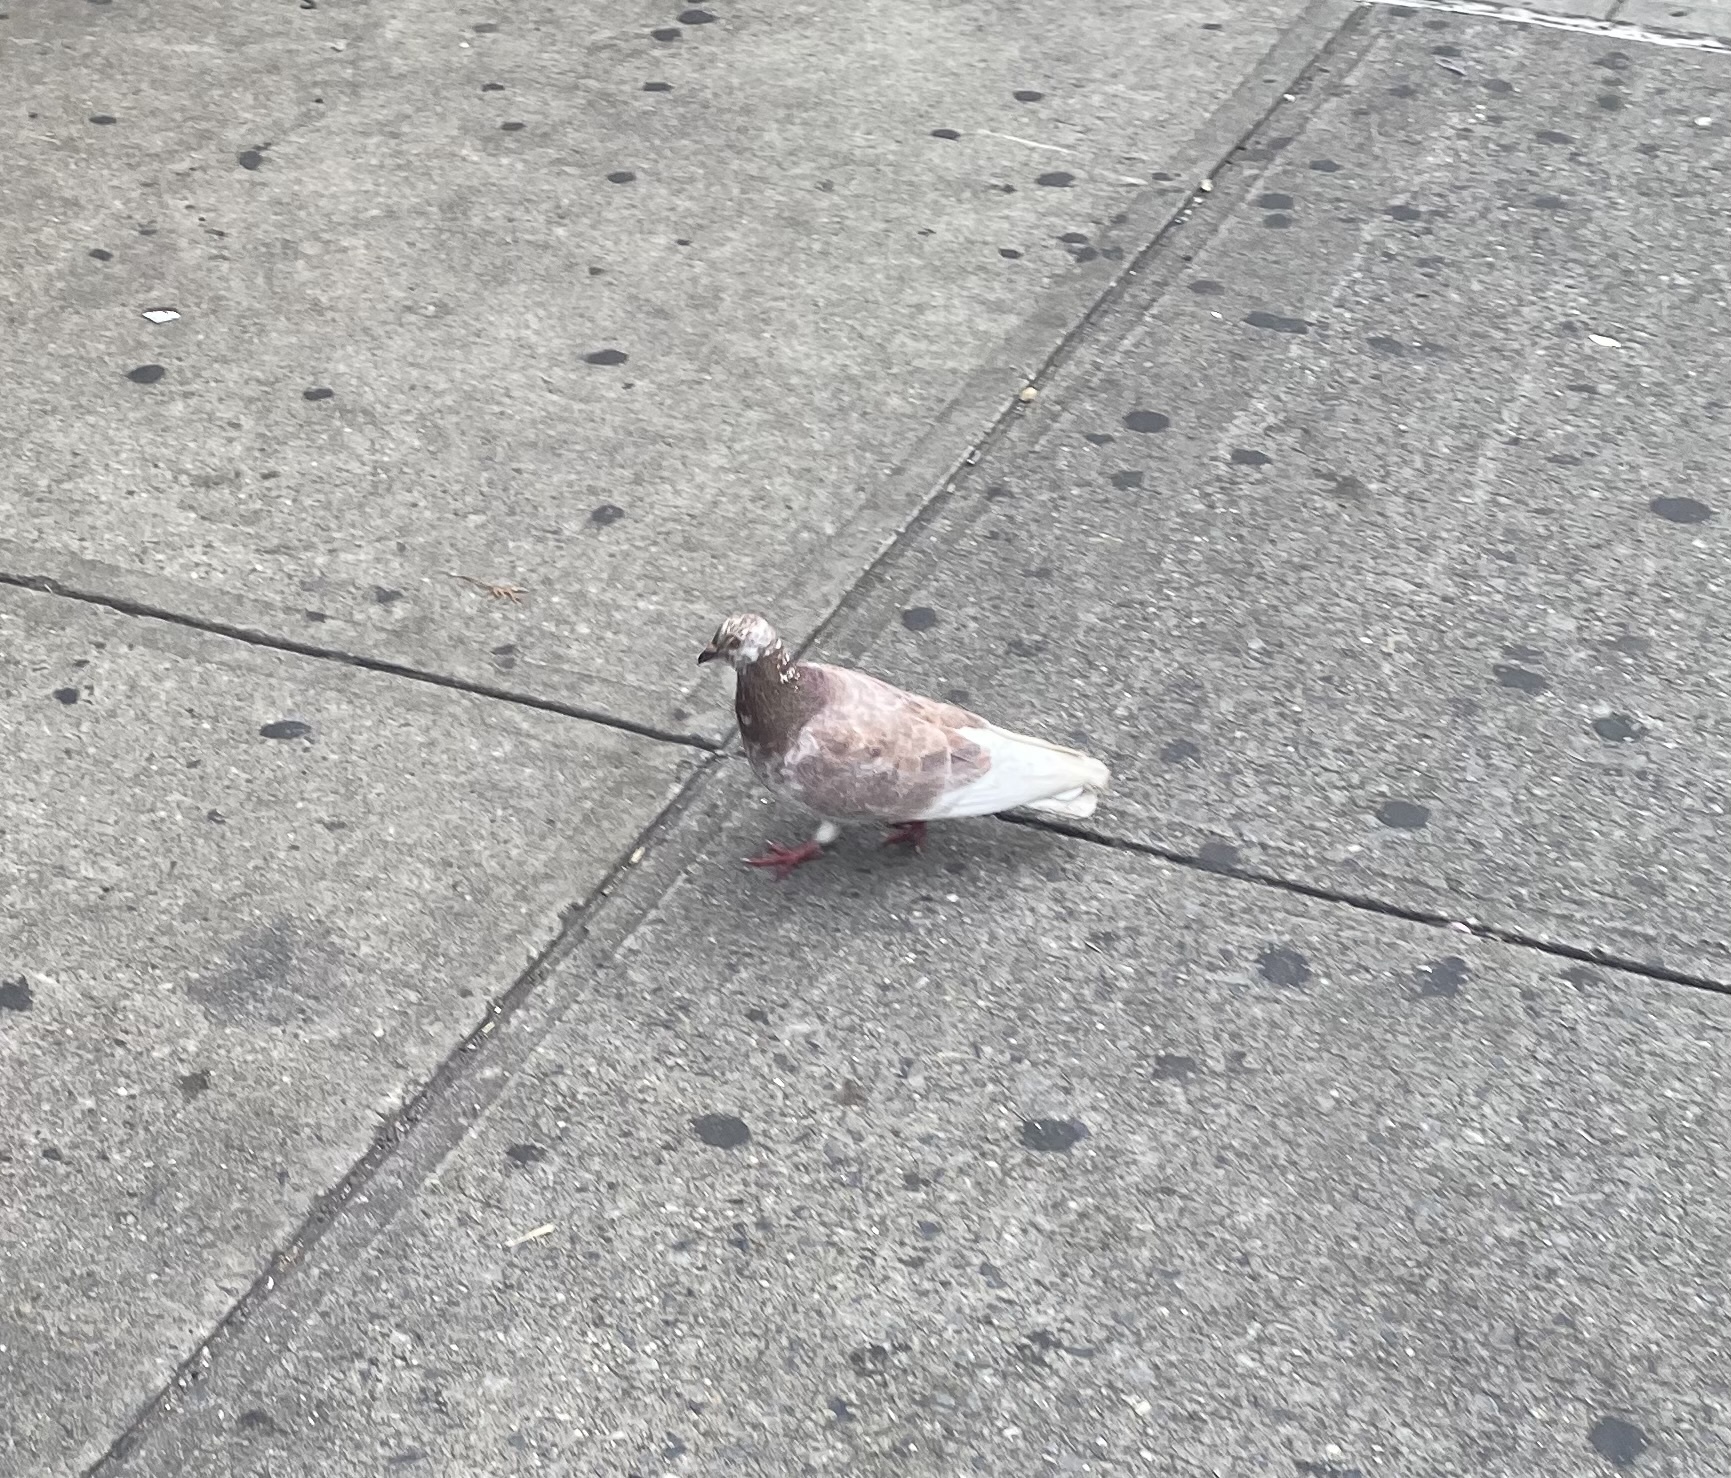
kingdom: Animalia
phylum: Chordata
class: Aves
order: Columbiformes
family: Columbidae
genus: Columba
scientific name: Columba livia
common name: Rock pigeon
